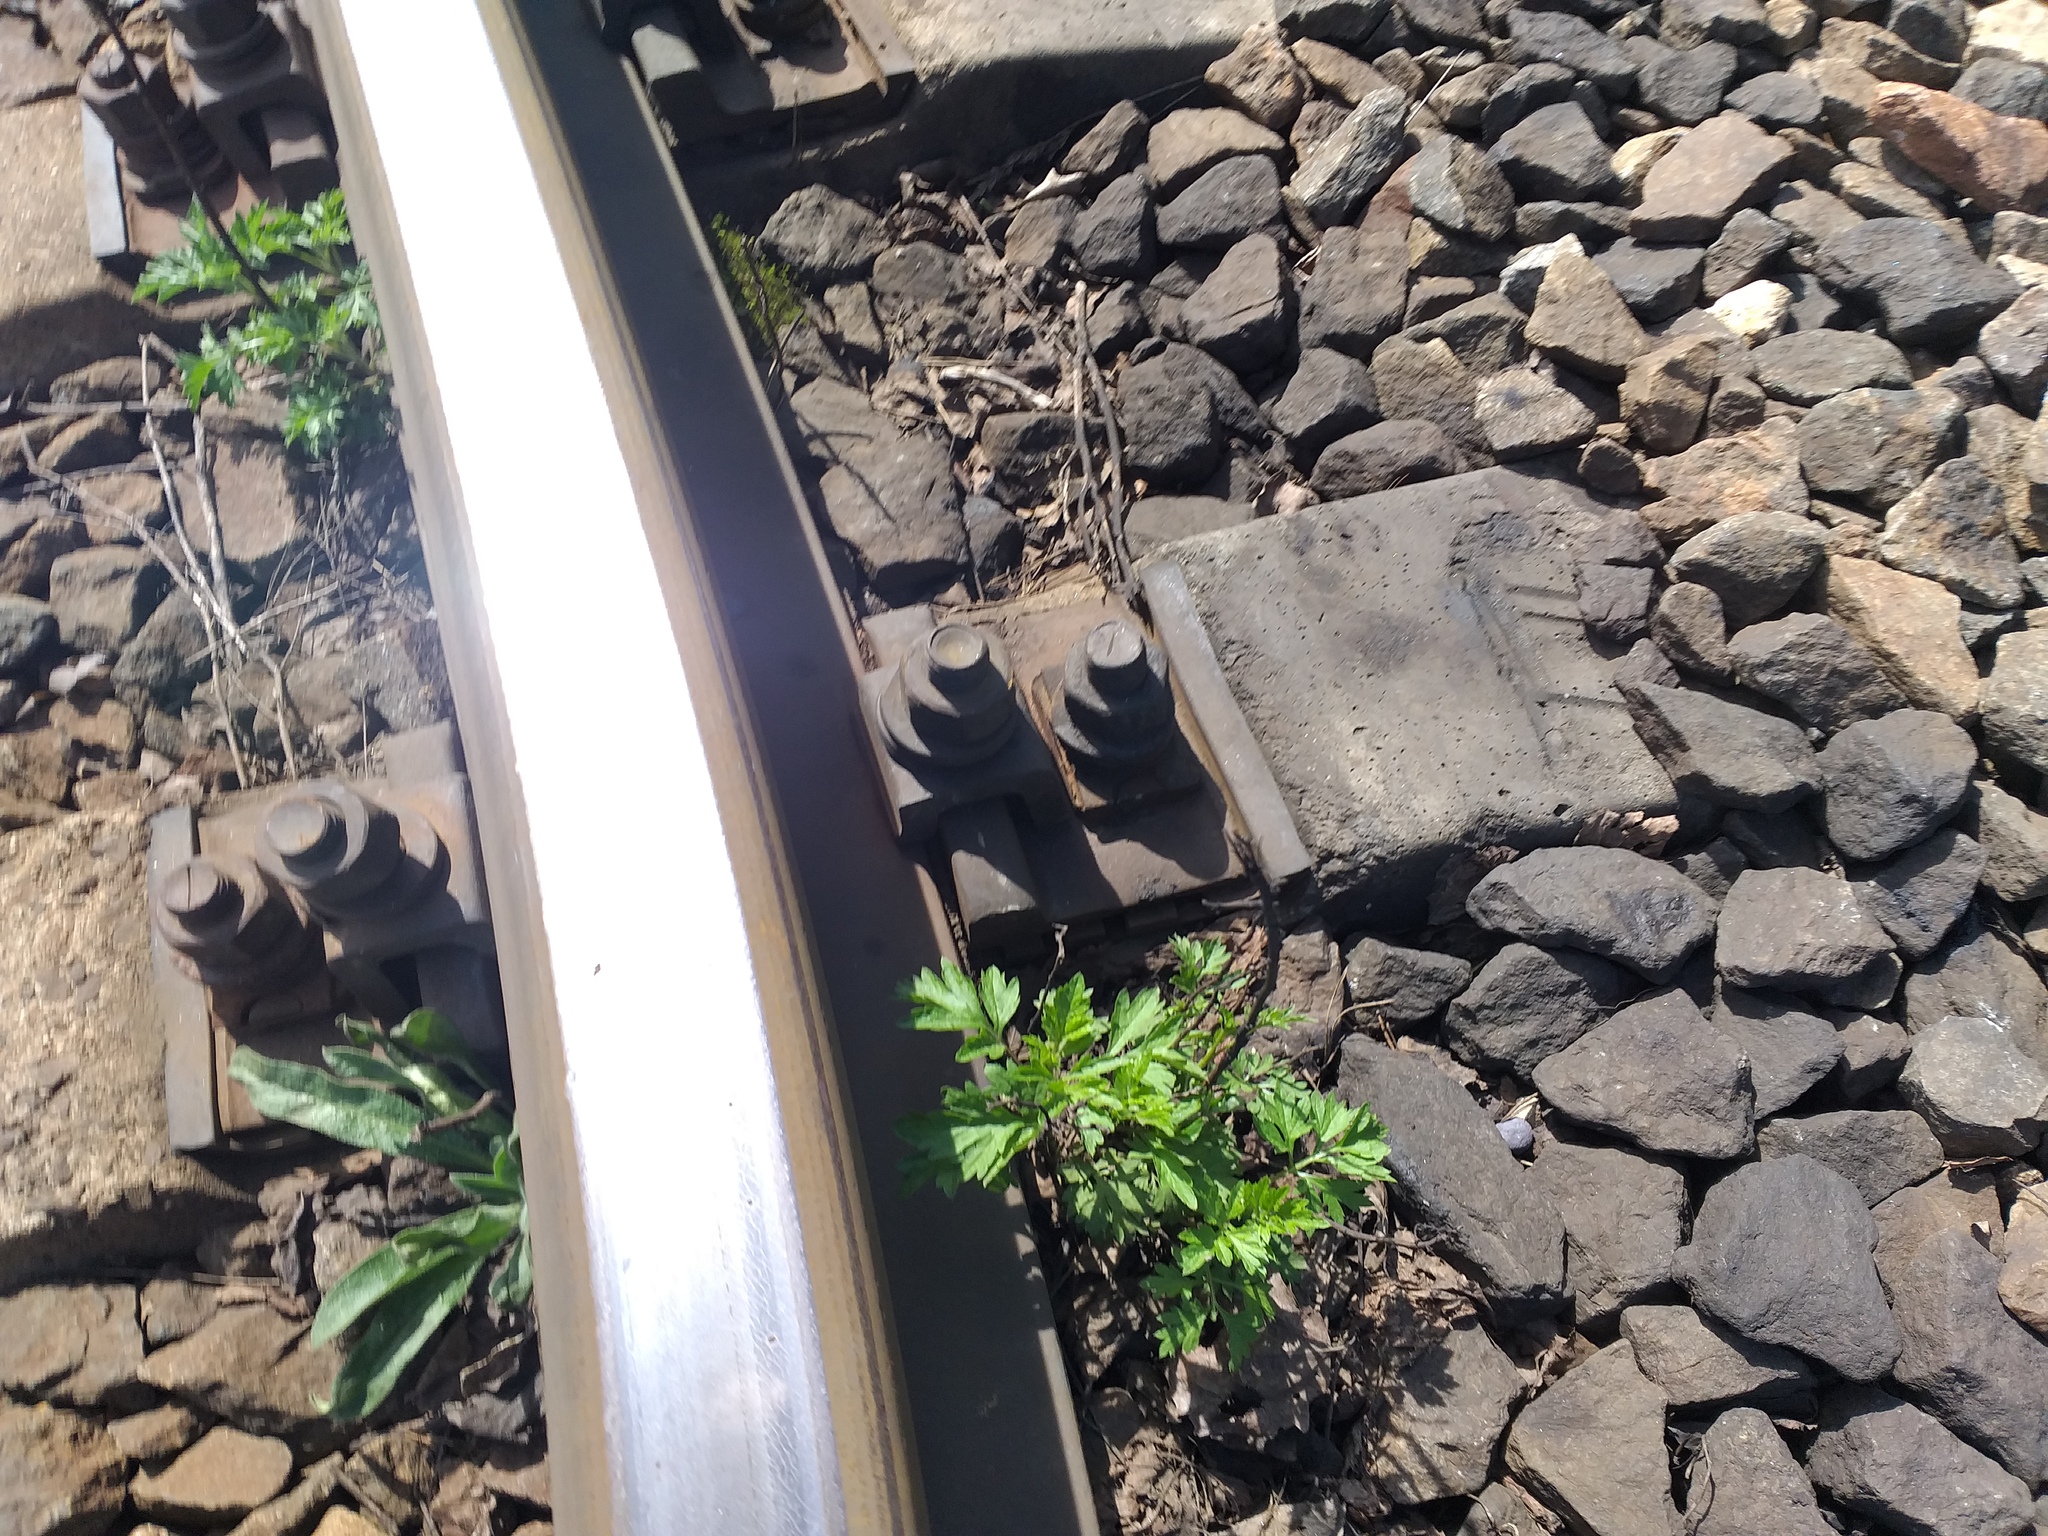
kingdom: Plantae
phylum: Tracheophyta
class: Magnoliopsida
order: Asterales
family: Asteraceae
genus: Artemisia
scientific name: Artemisia vulgaris
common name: Mugwort
